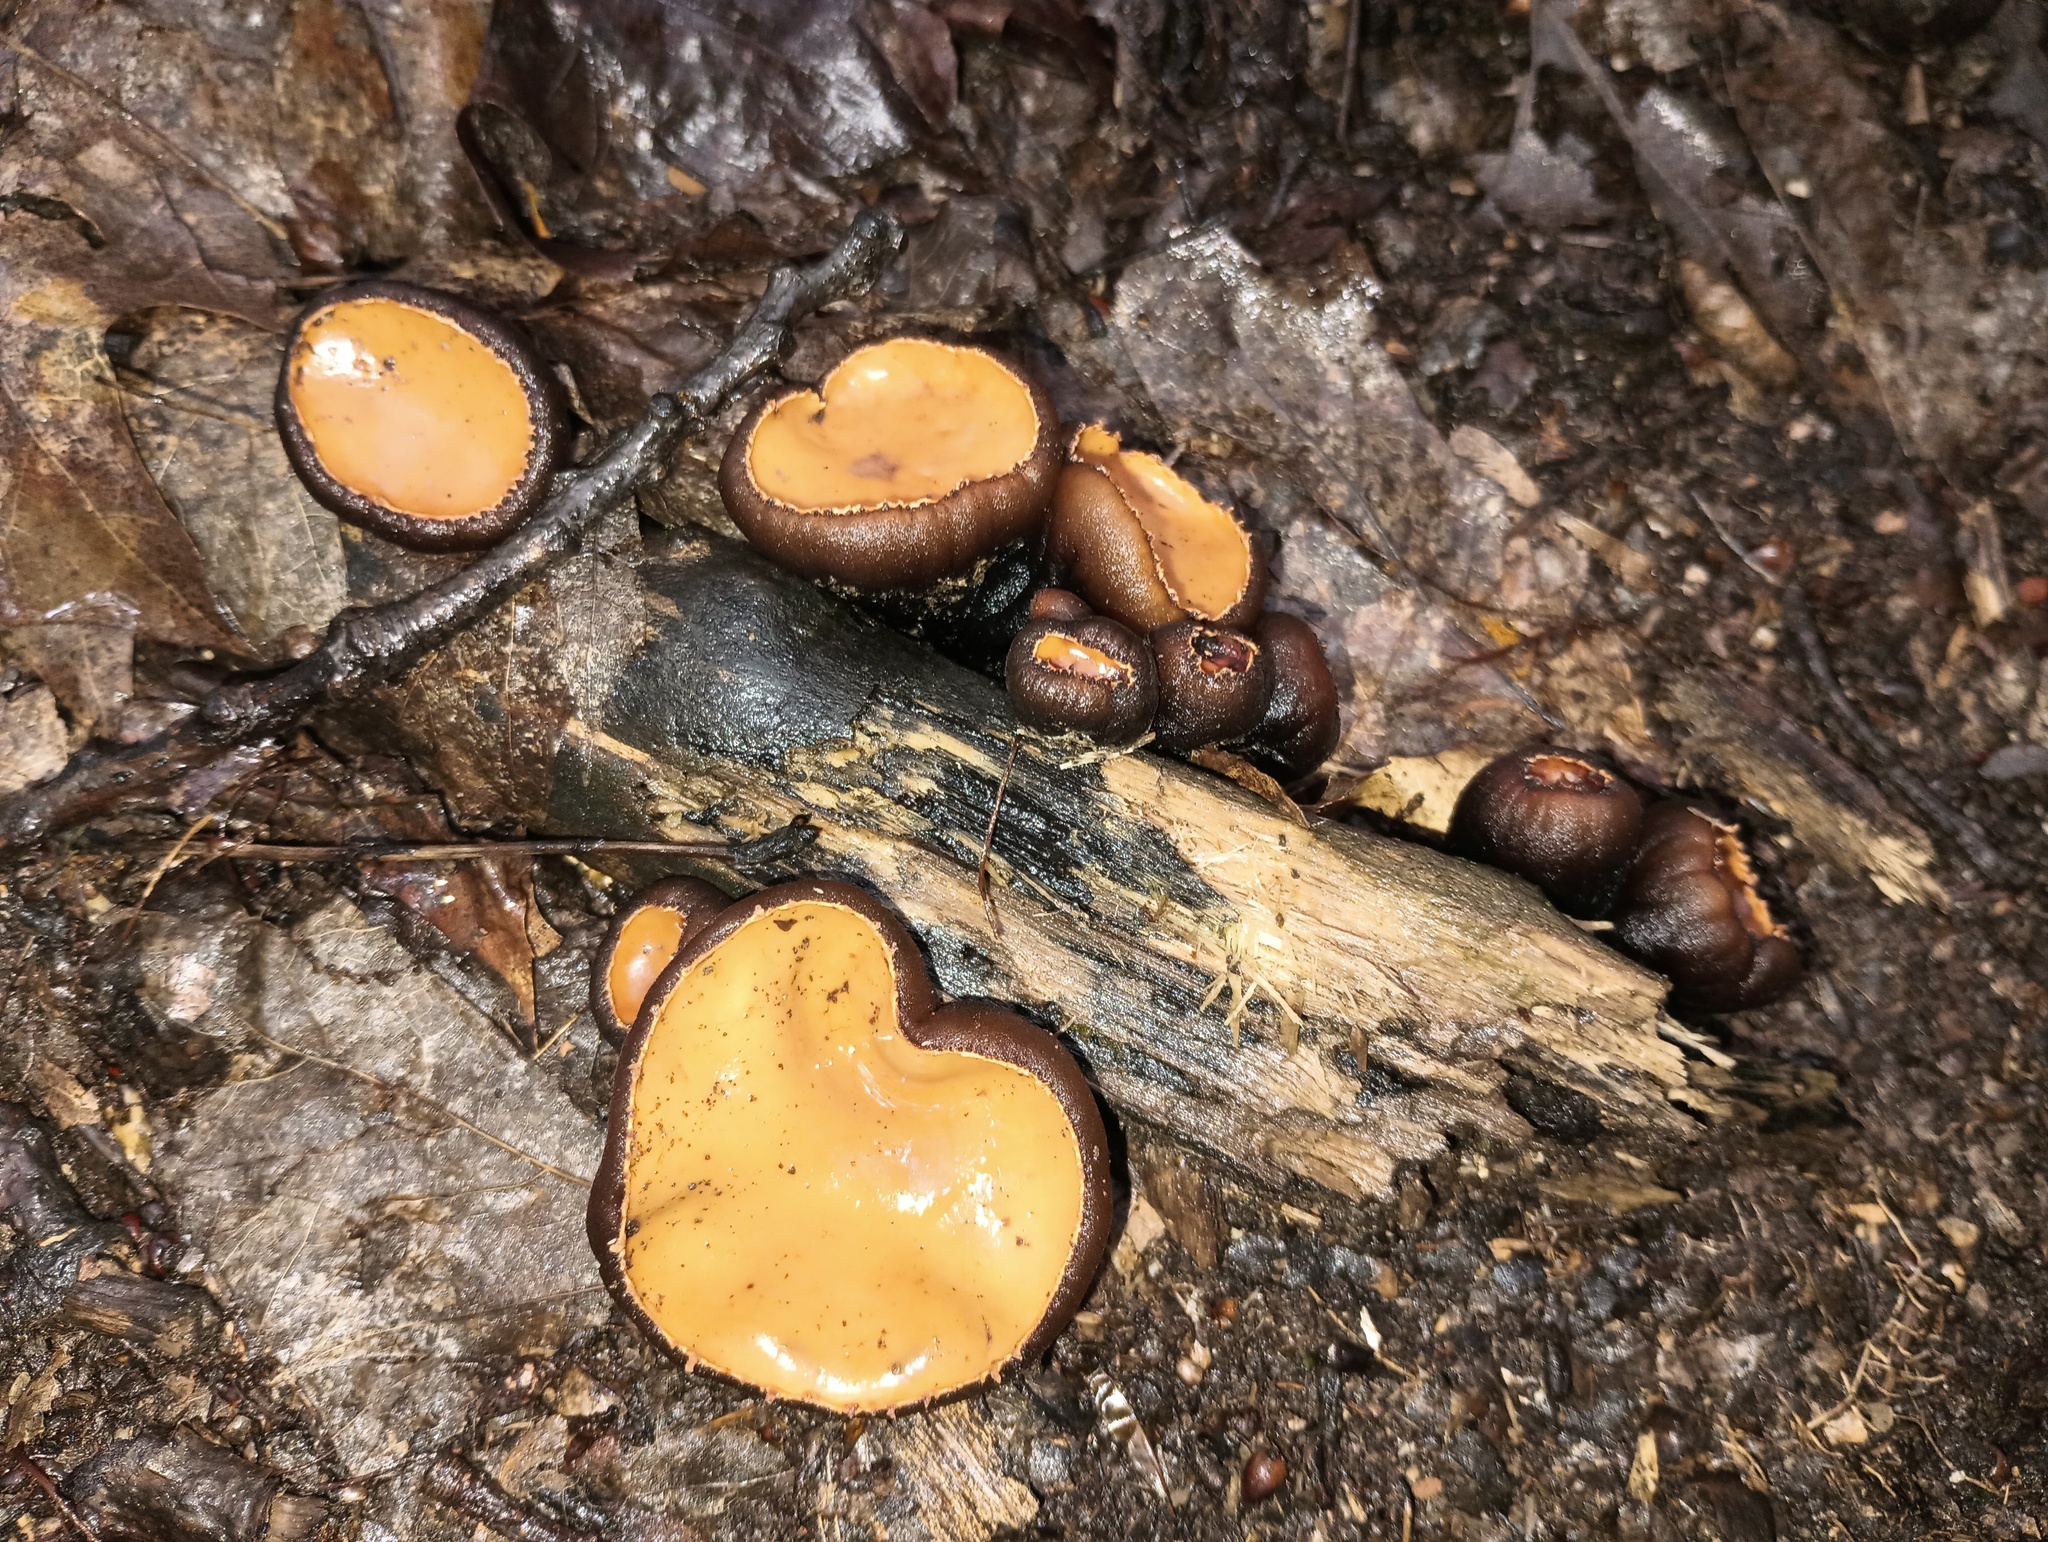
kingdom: Fungi
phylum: Ascomycota
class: Pezizomycetes
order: Pezizales
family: Sarcosomataceae
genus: Galiella
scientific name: Galiella rufa
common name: Hairy rubber cup
